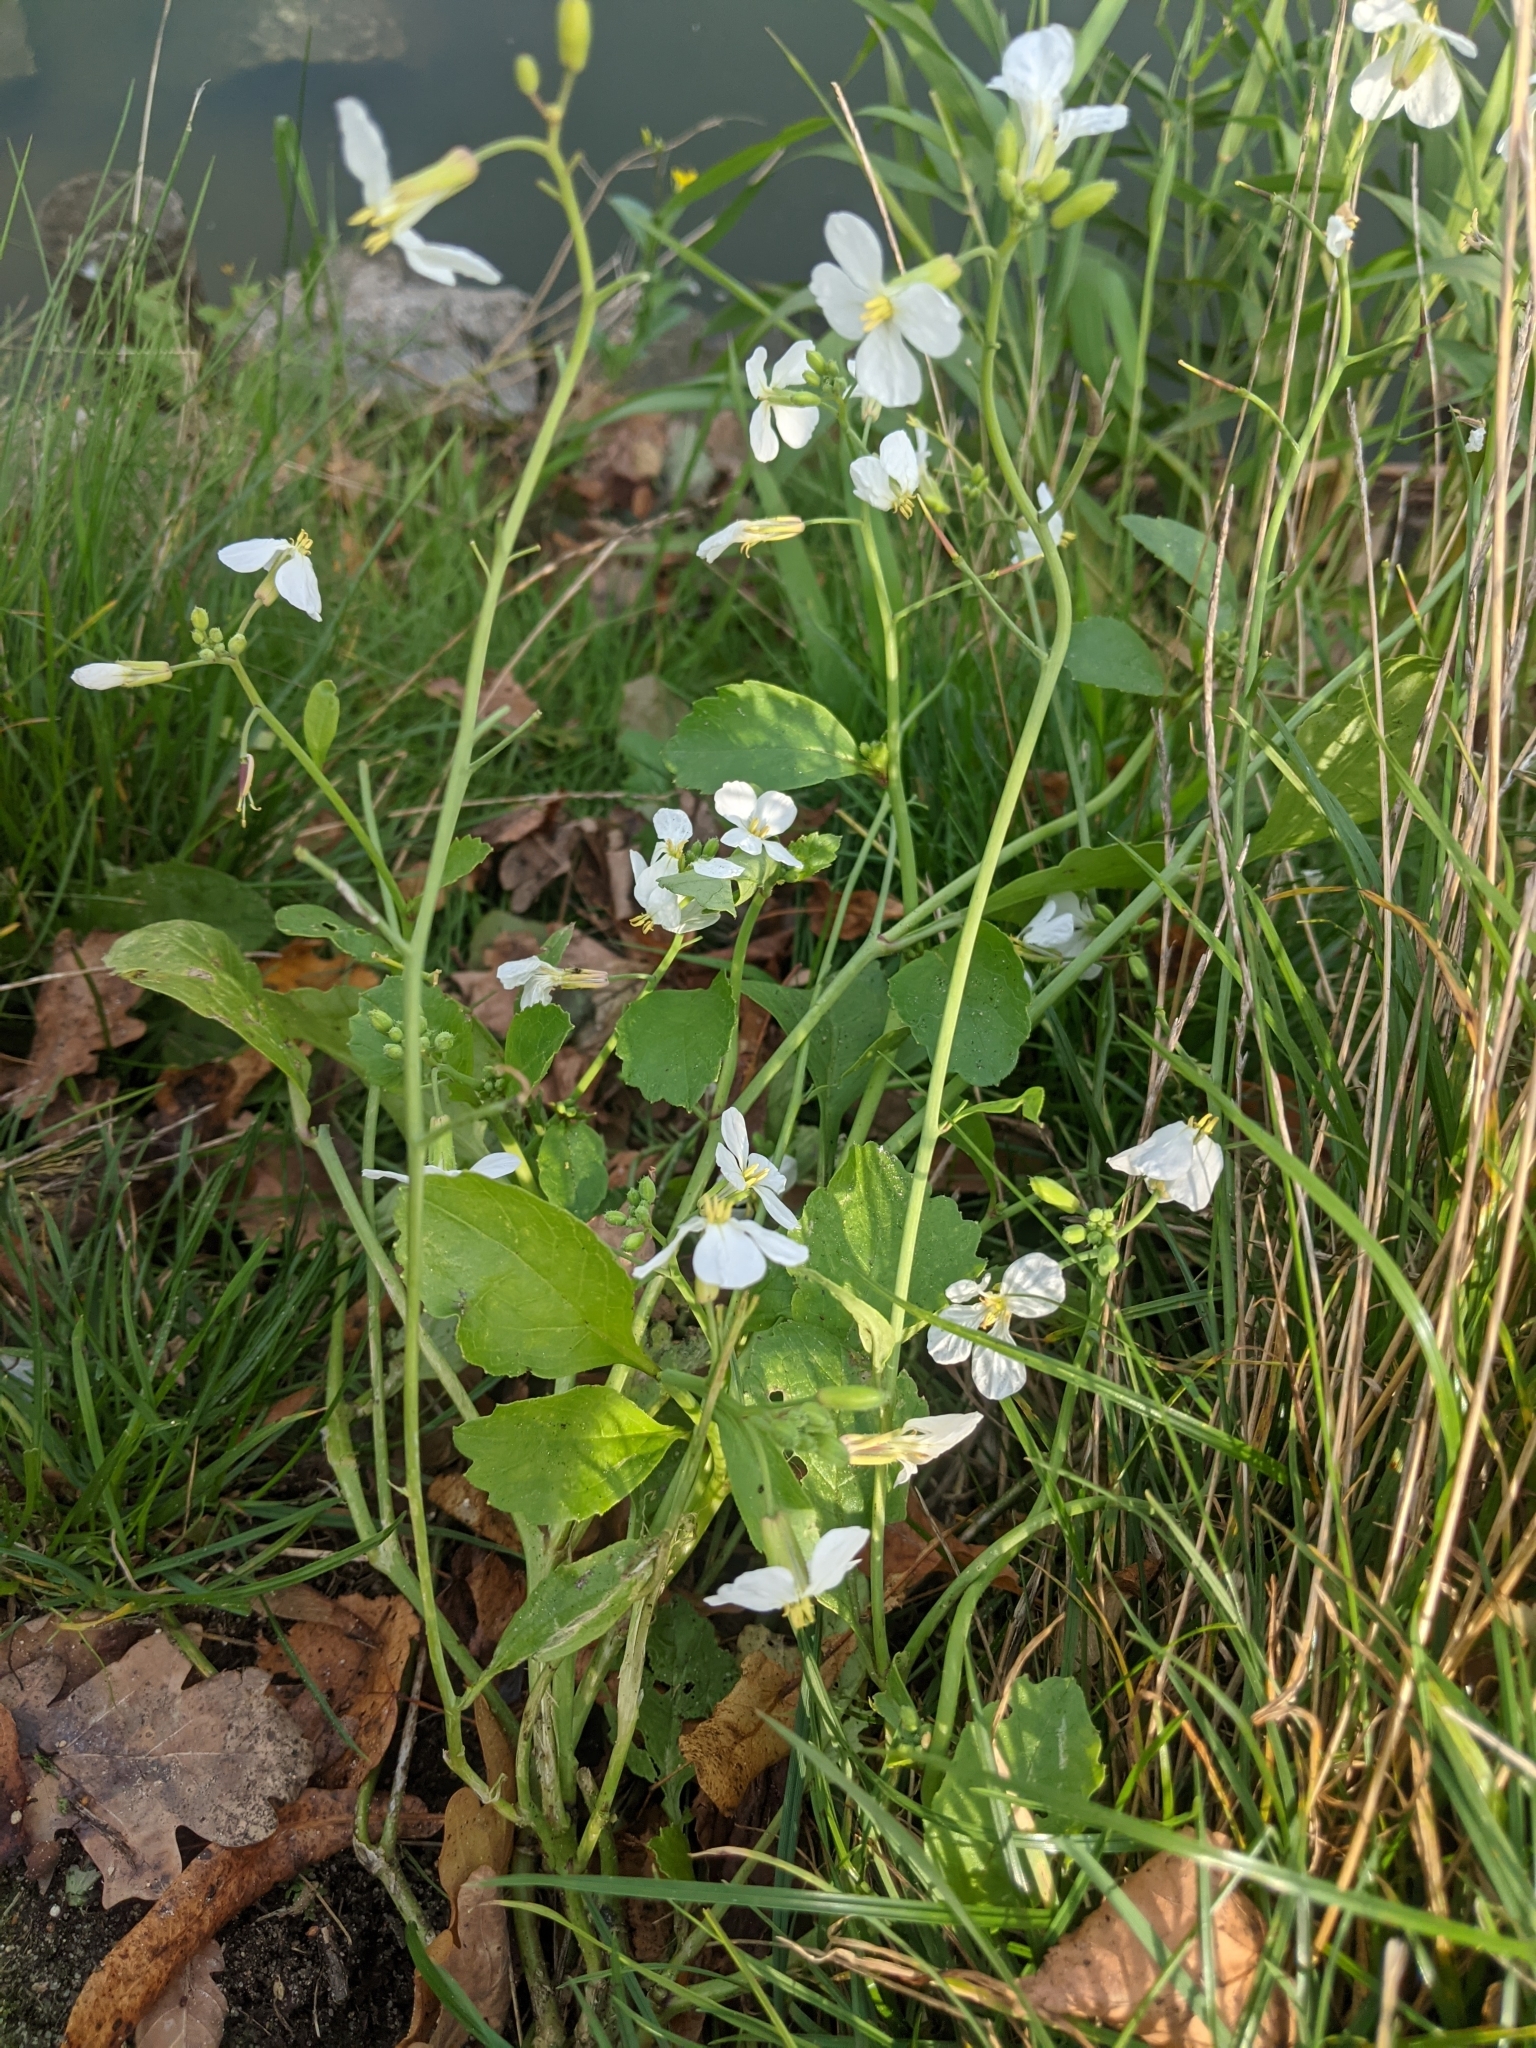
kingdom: Plantae
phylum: Tracheophyta
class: Magnoliopsida
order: Brassicales
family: Brassicaceae
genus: Raphanus
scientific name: Raphanus sativus
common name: Cultivated radish
